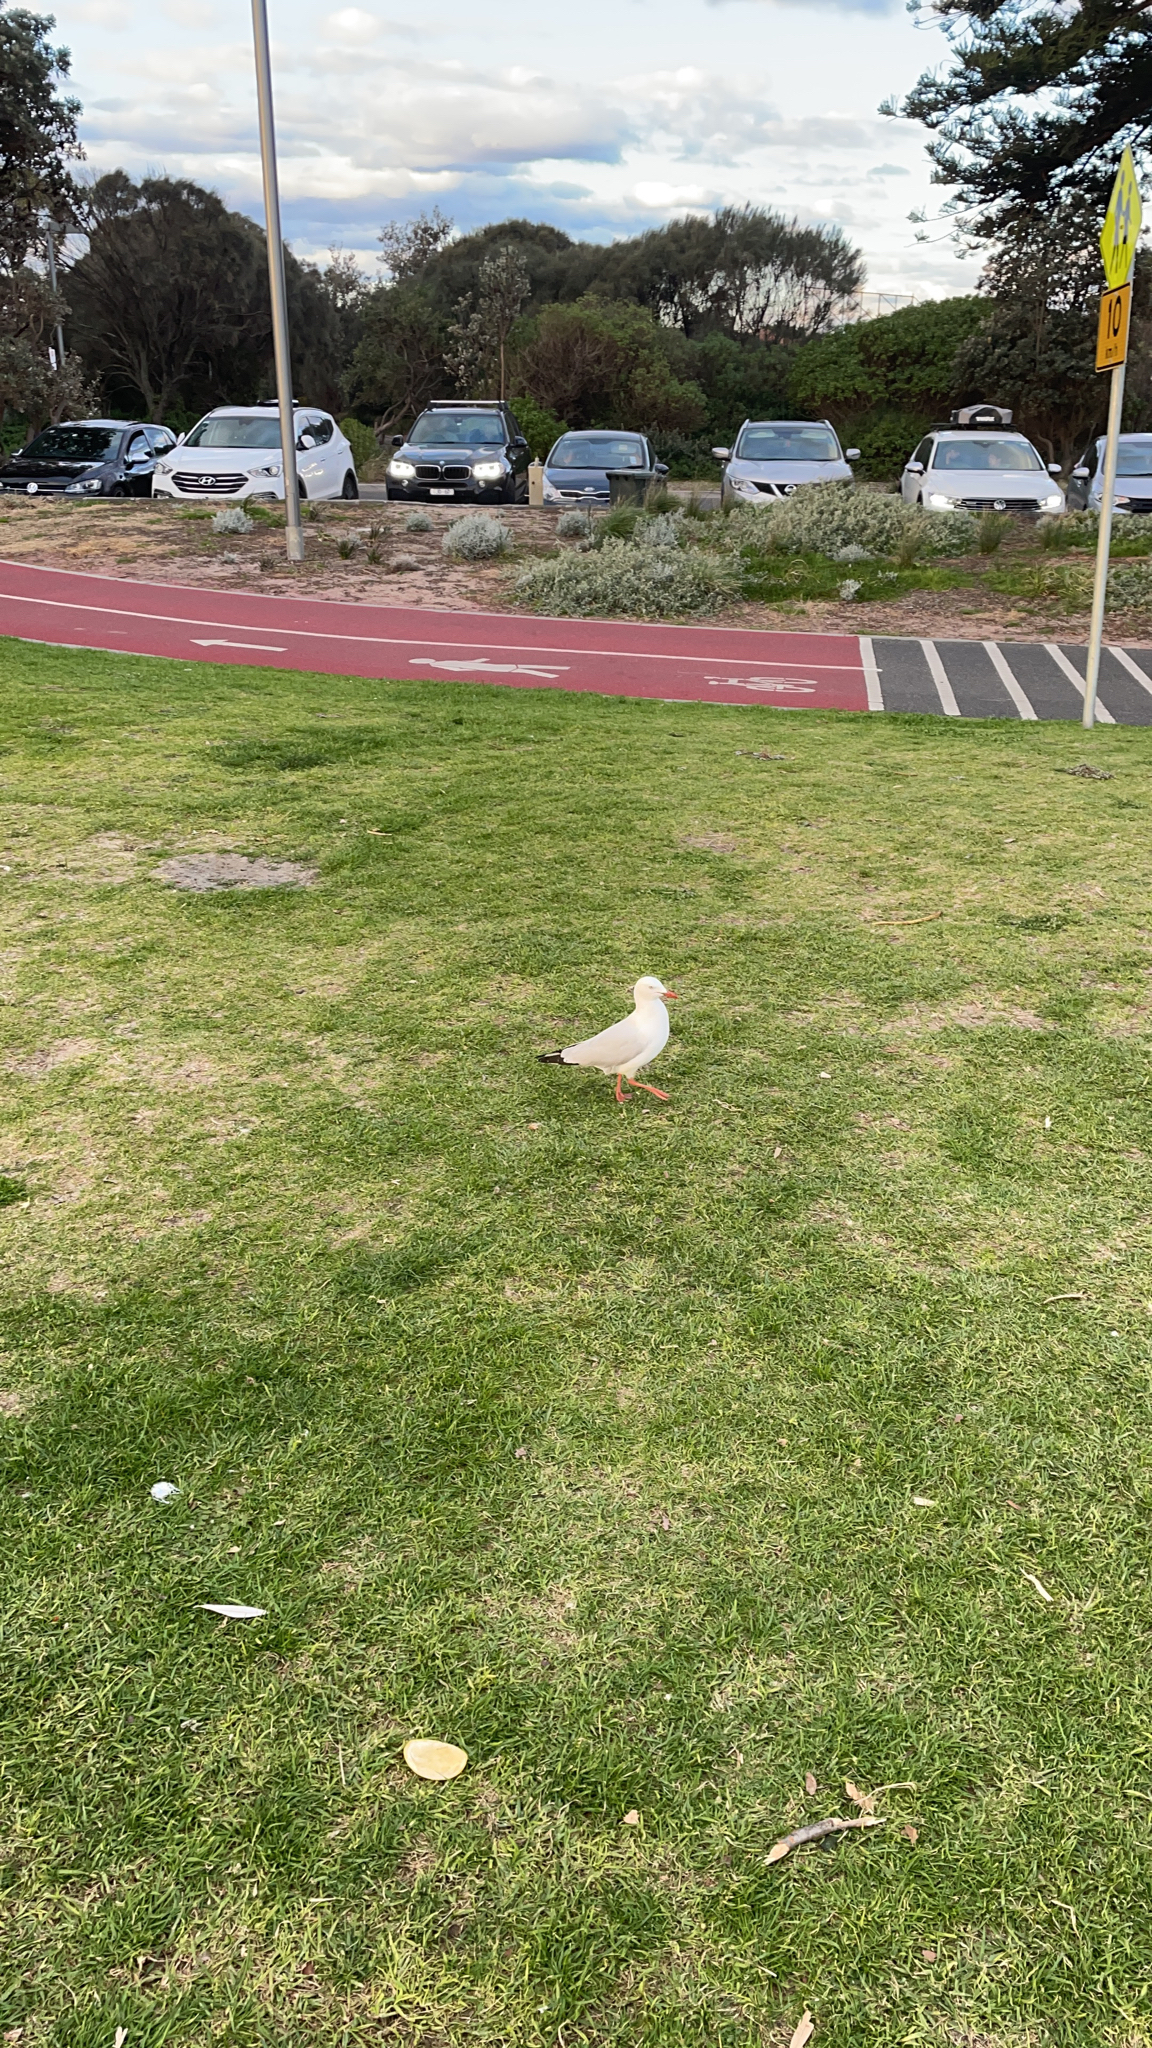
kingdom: Animalia
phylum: Chordata
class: Aves
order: Charadriiformes
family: Laridae
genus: Chroicocephalus
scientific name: Chroicocephalus novaehollandiae
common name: Silver gull
